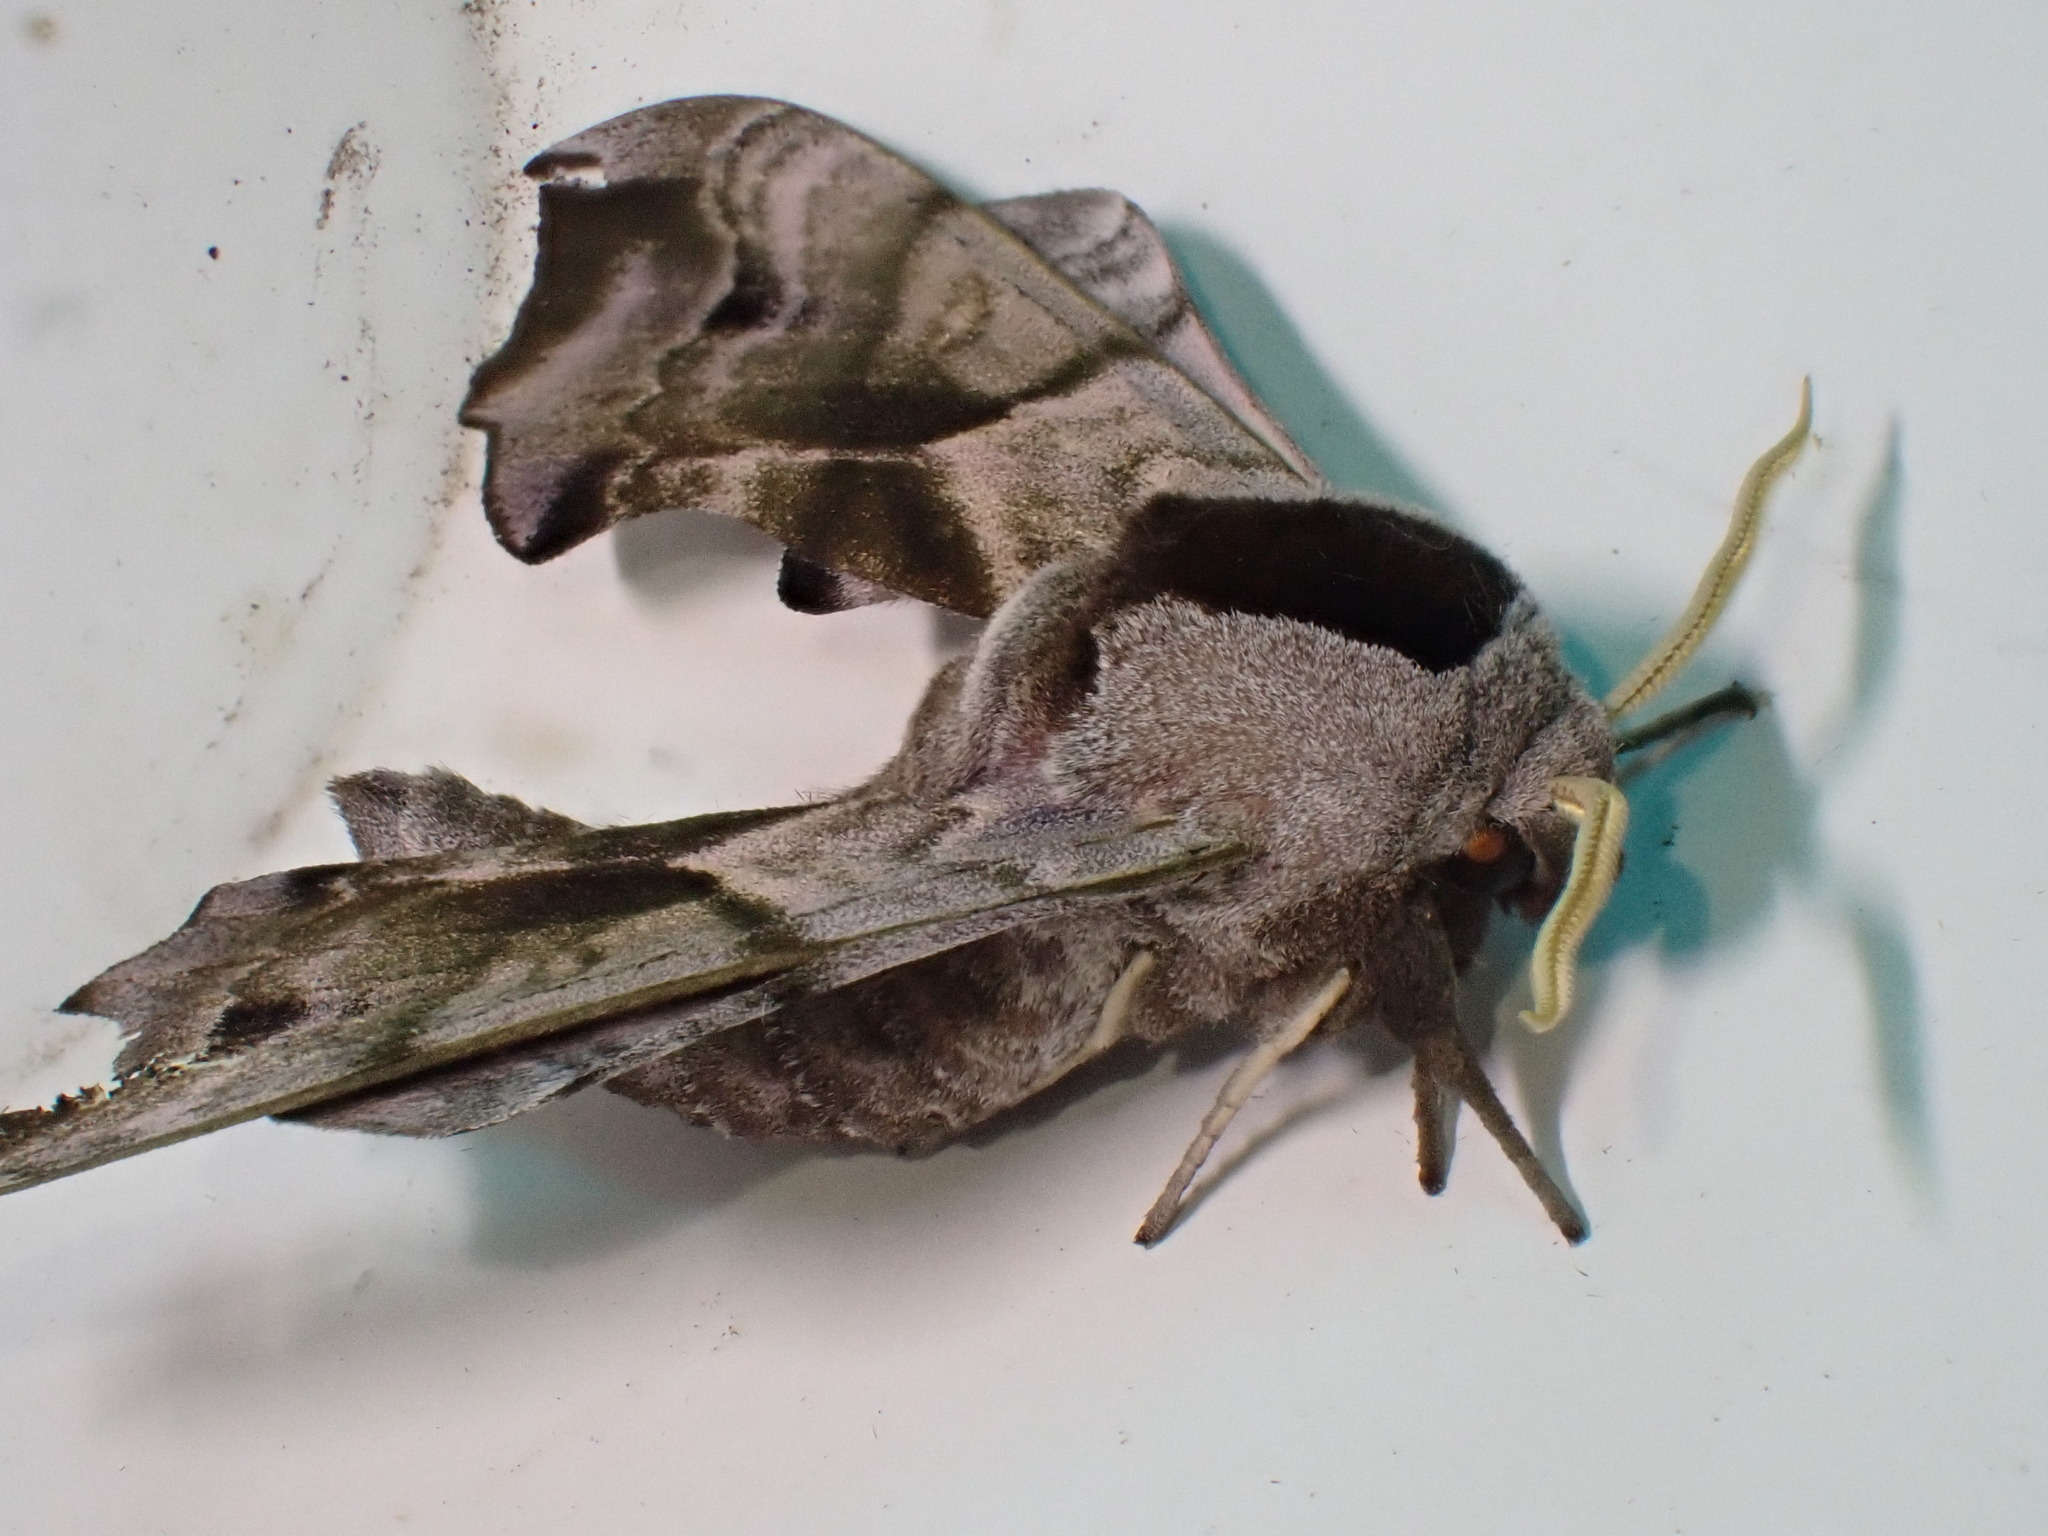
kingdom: Animalia
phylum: Arthropoda
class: Insecta
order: Lepidoptera
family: Sphingidae
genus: Smerinthus
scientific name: Smerinthus ocellata
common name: Eyed hawk-moth
